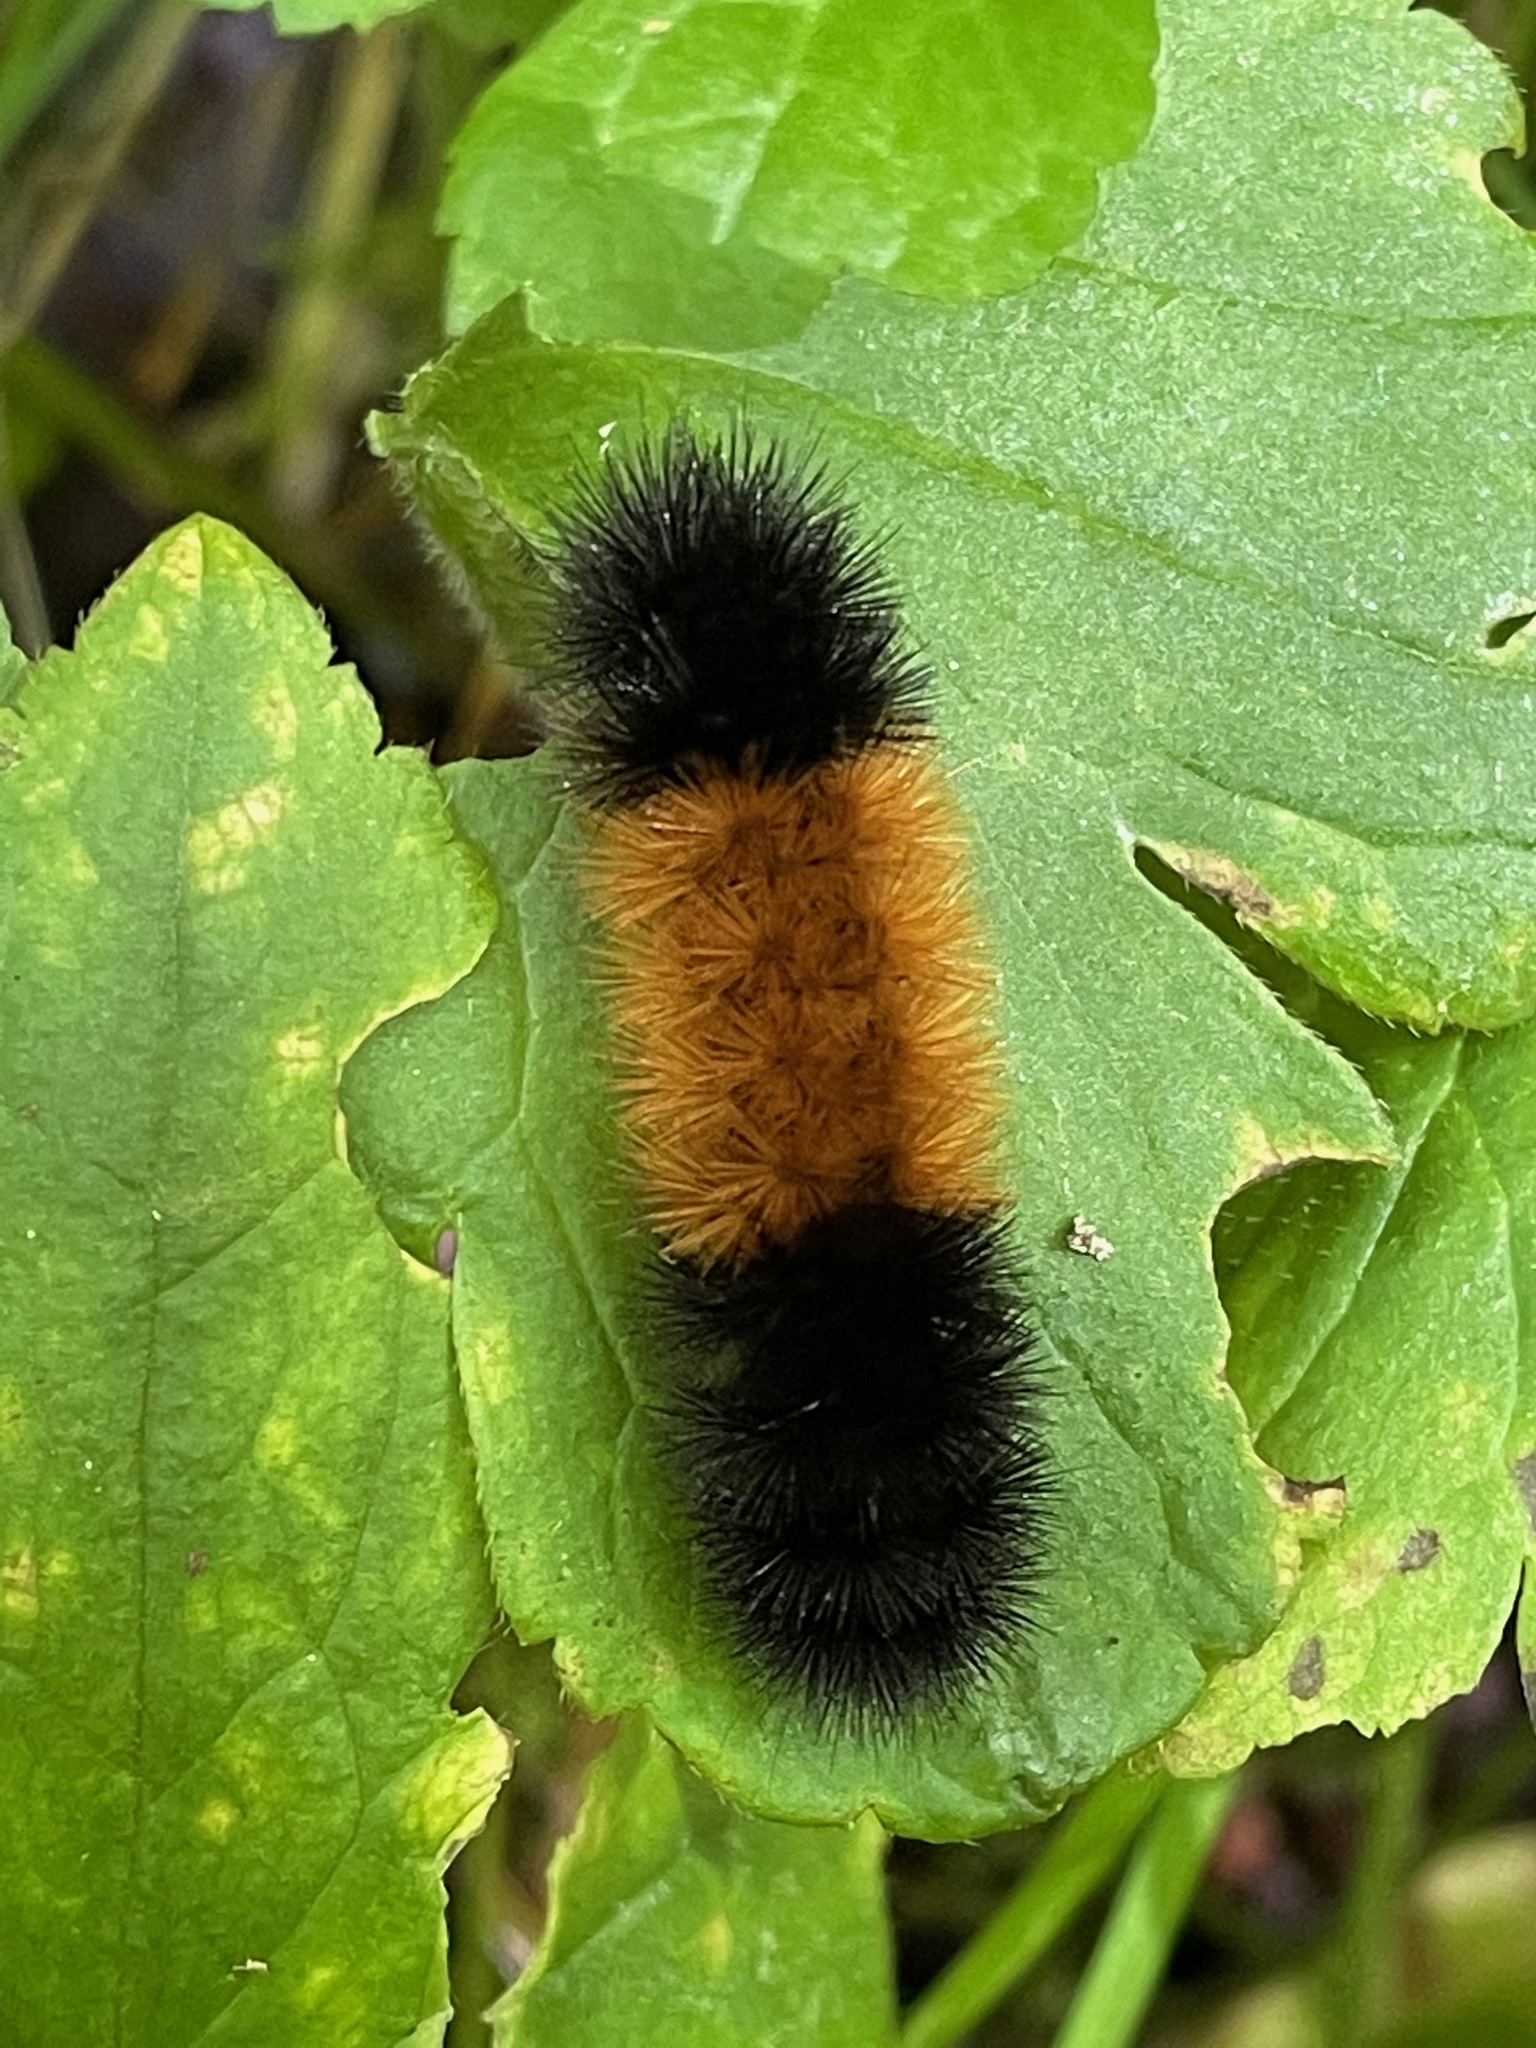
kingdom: Animalia
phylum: Arthropoda
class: Insecta
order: Lepidoptera
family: Erebidae
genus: Pyrrharctia
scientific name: Pyrrharctia isabella
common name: Isabella tiger moth
